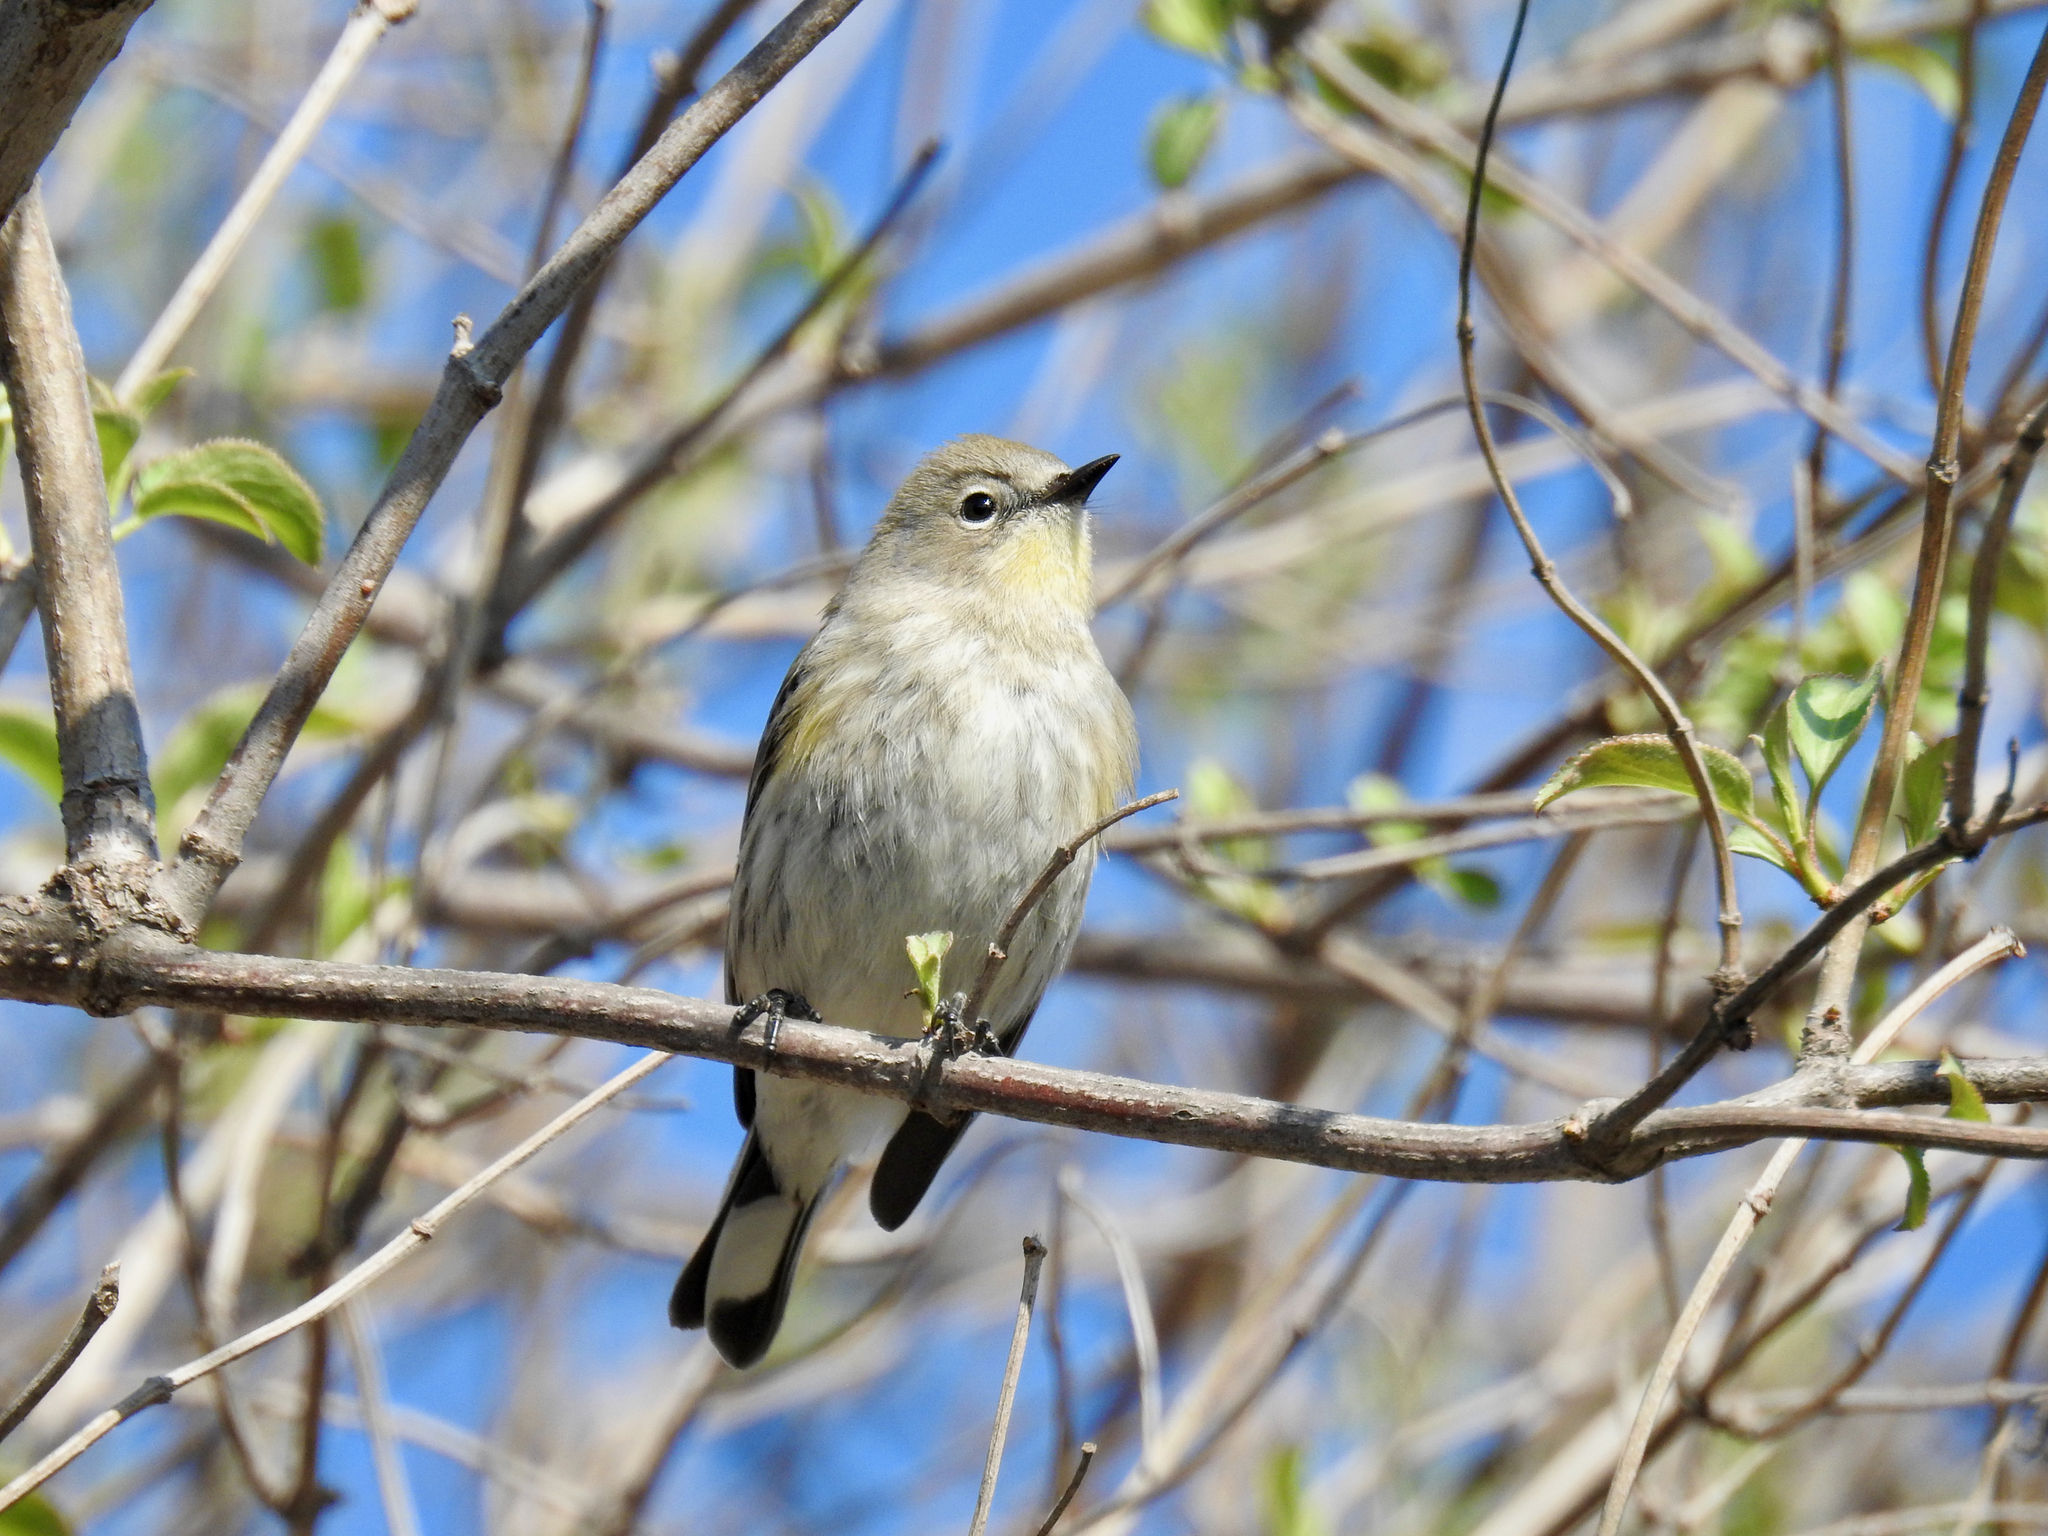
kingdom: Animalia
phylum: Chordata
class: Aves
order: Passeriformes
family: Parulidae
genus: Setophaga
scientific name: Setophaga coronata
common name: Myrtle warbler
